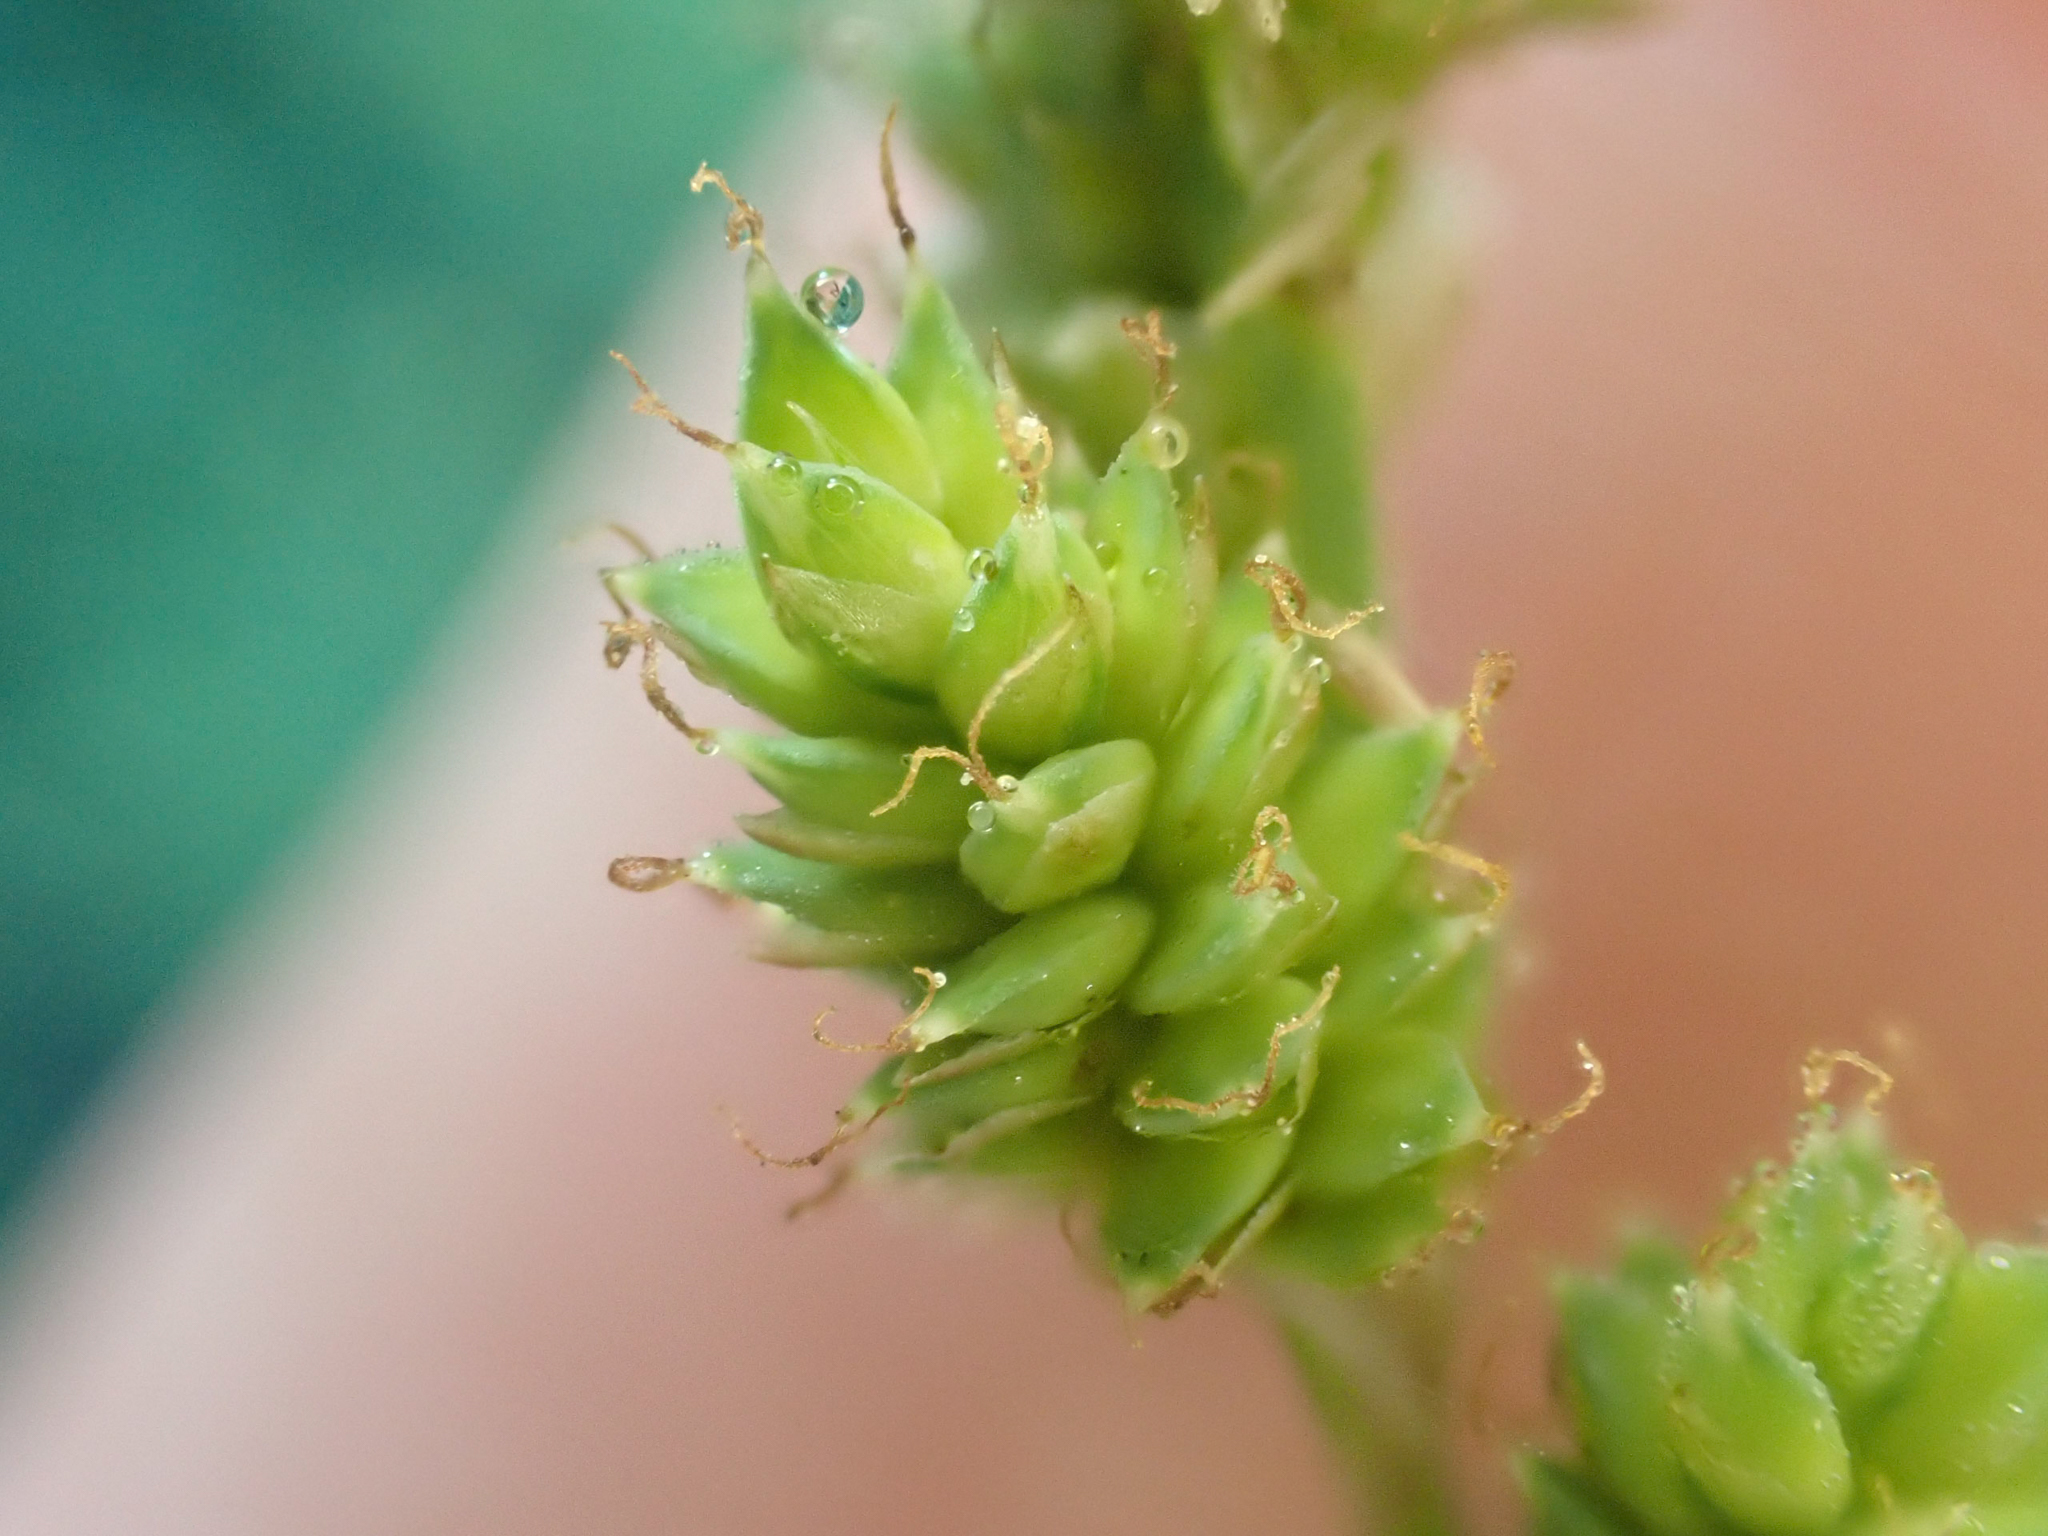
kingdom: Plantae
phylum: Tracheophyta
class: Liliopsida
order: Poales
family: Cyperaceae
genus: Carex
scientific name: Carex canescens
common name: White sedge
